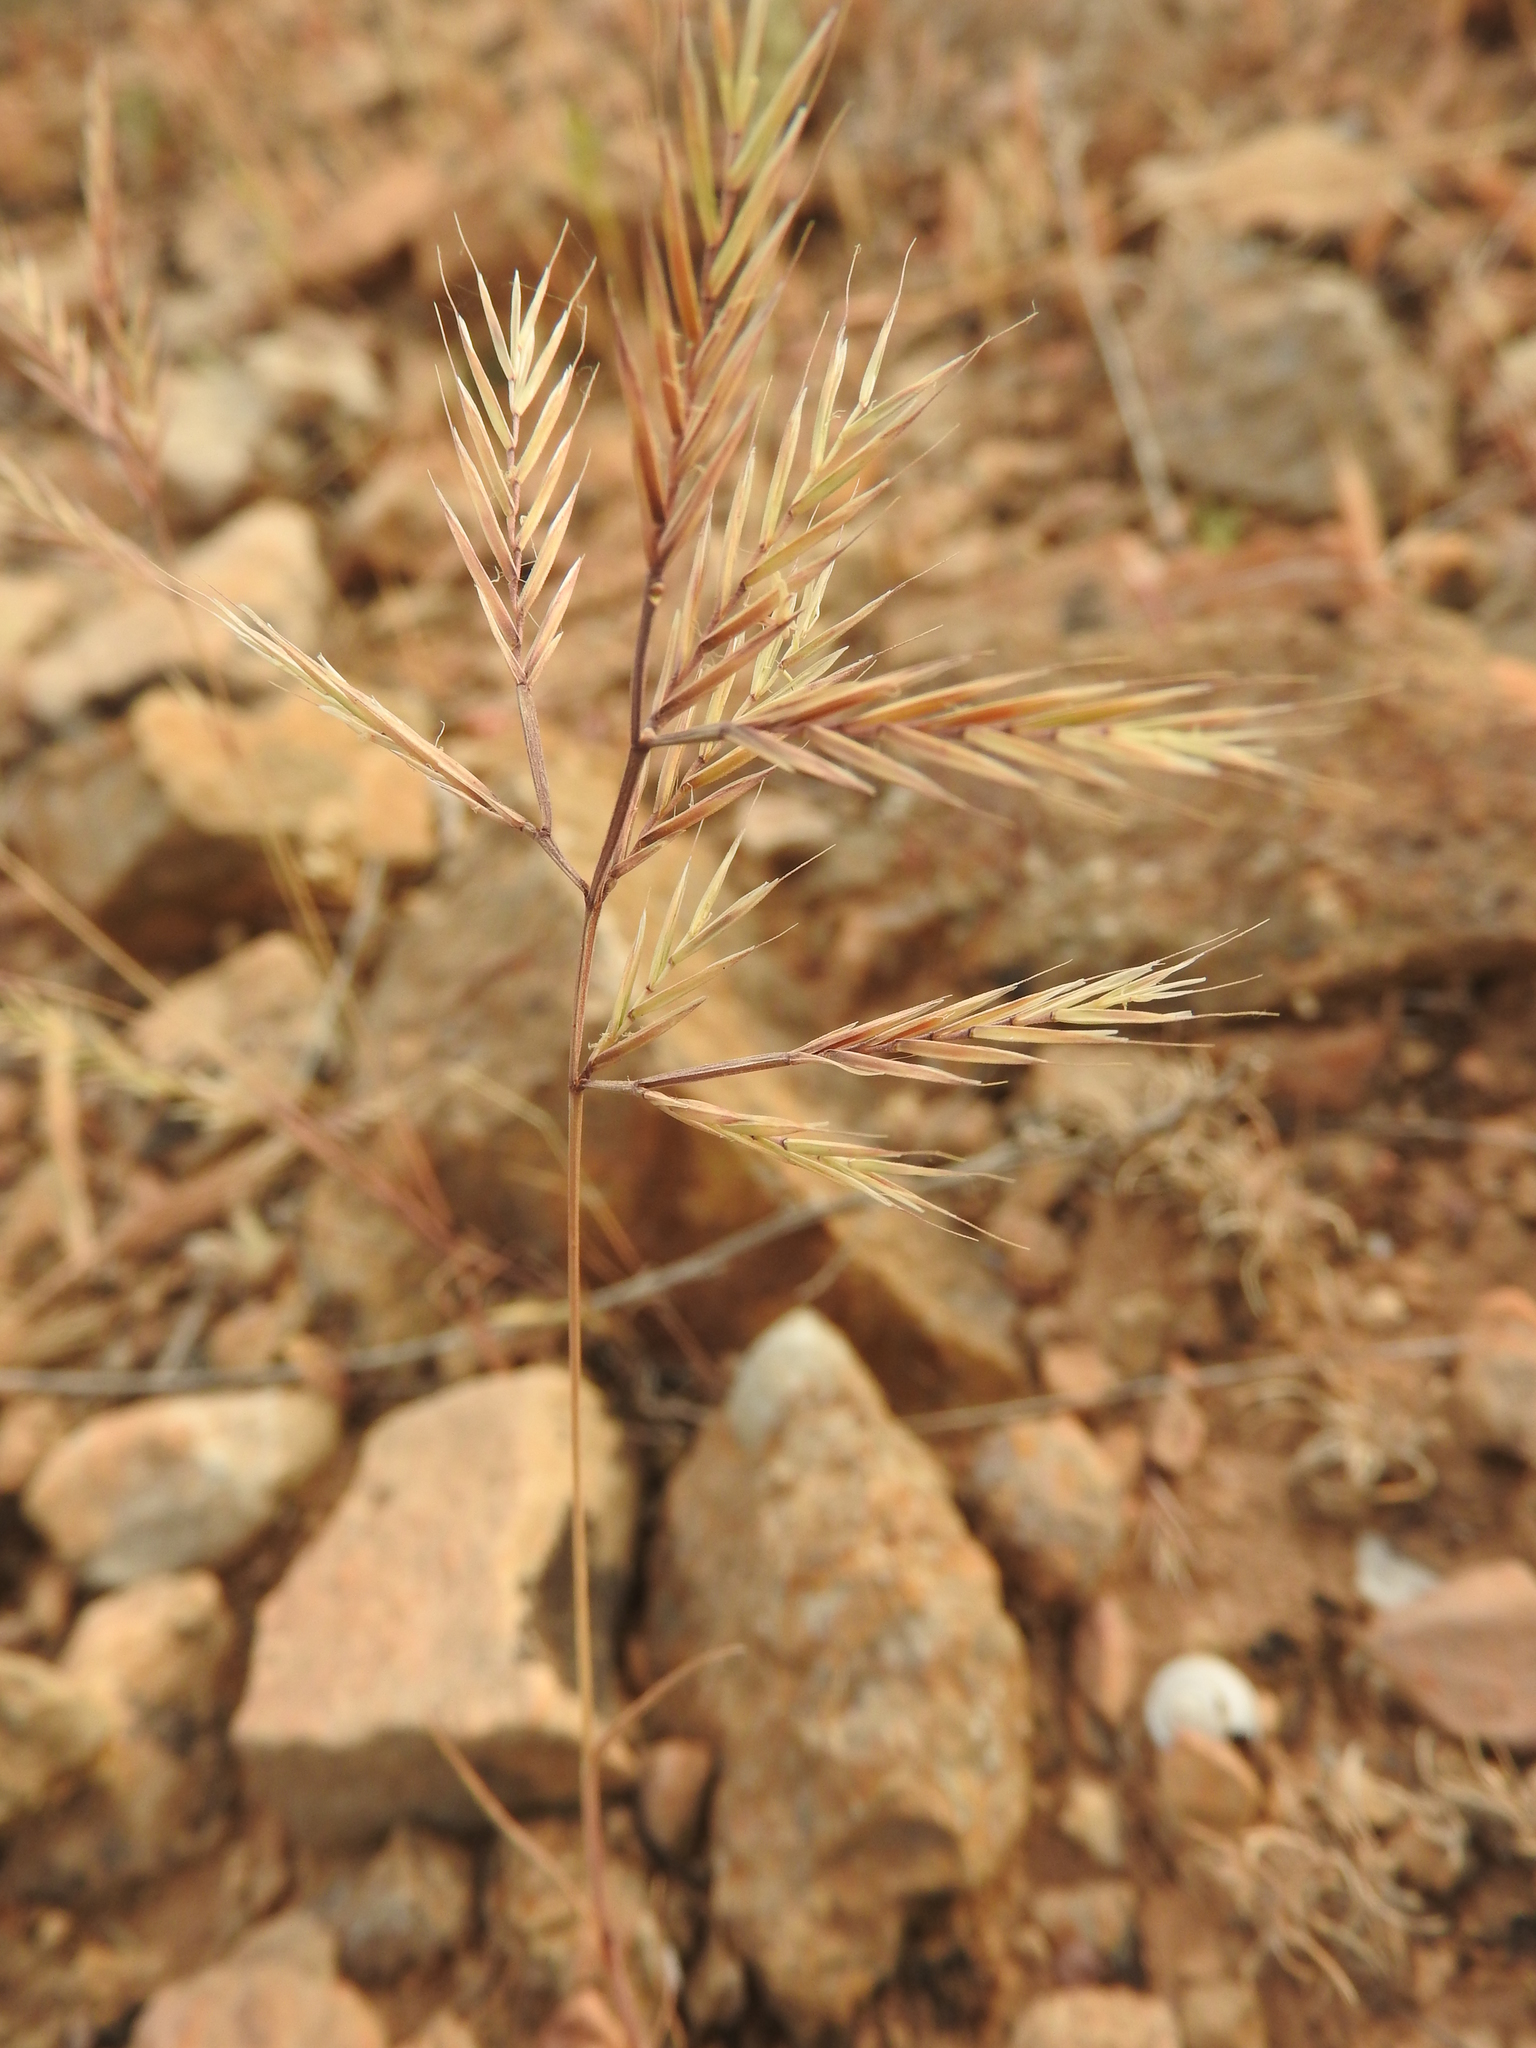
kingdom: Plantae
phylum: Tracheophyta
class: Liliopsida
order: Poales
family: Poaceae
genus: Vulpiella
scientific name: Vulpiella stipoides
